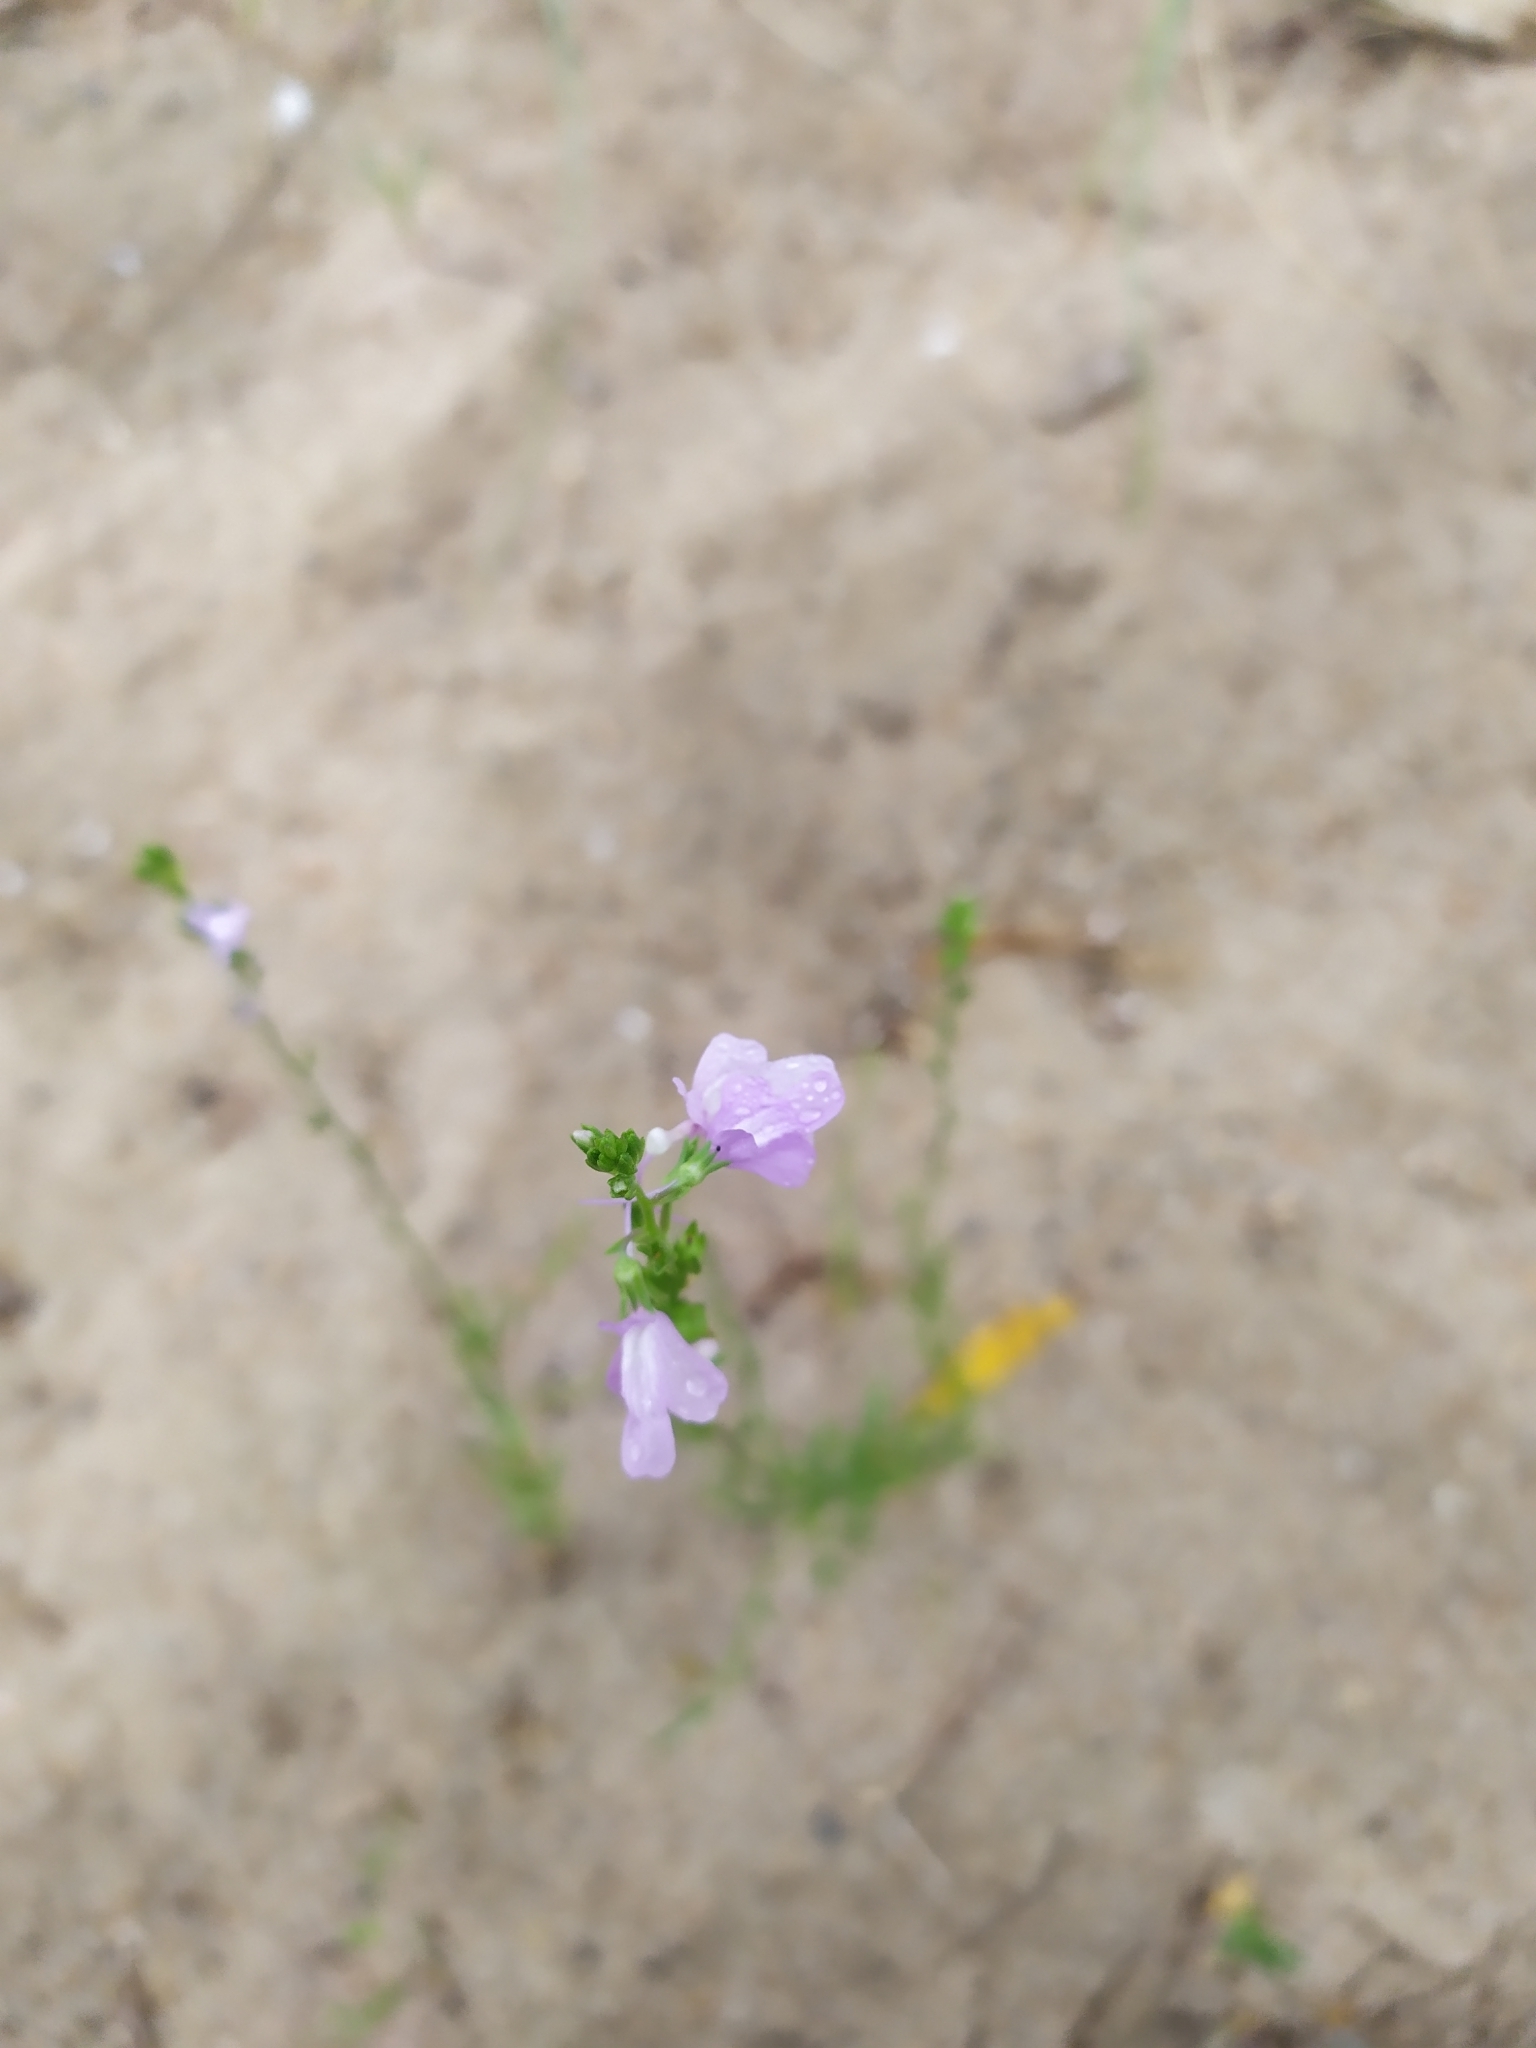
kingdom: Plantae
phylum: Tracheophyta
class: Magnoliopsida
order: Lamiales
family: Plantaginaceae
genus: Nuttallanthus
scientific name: Nuttallanthus texanus
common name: Texas toadflax
